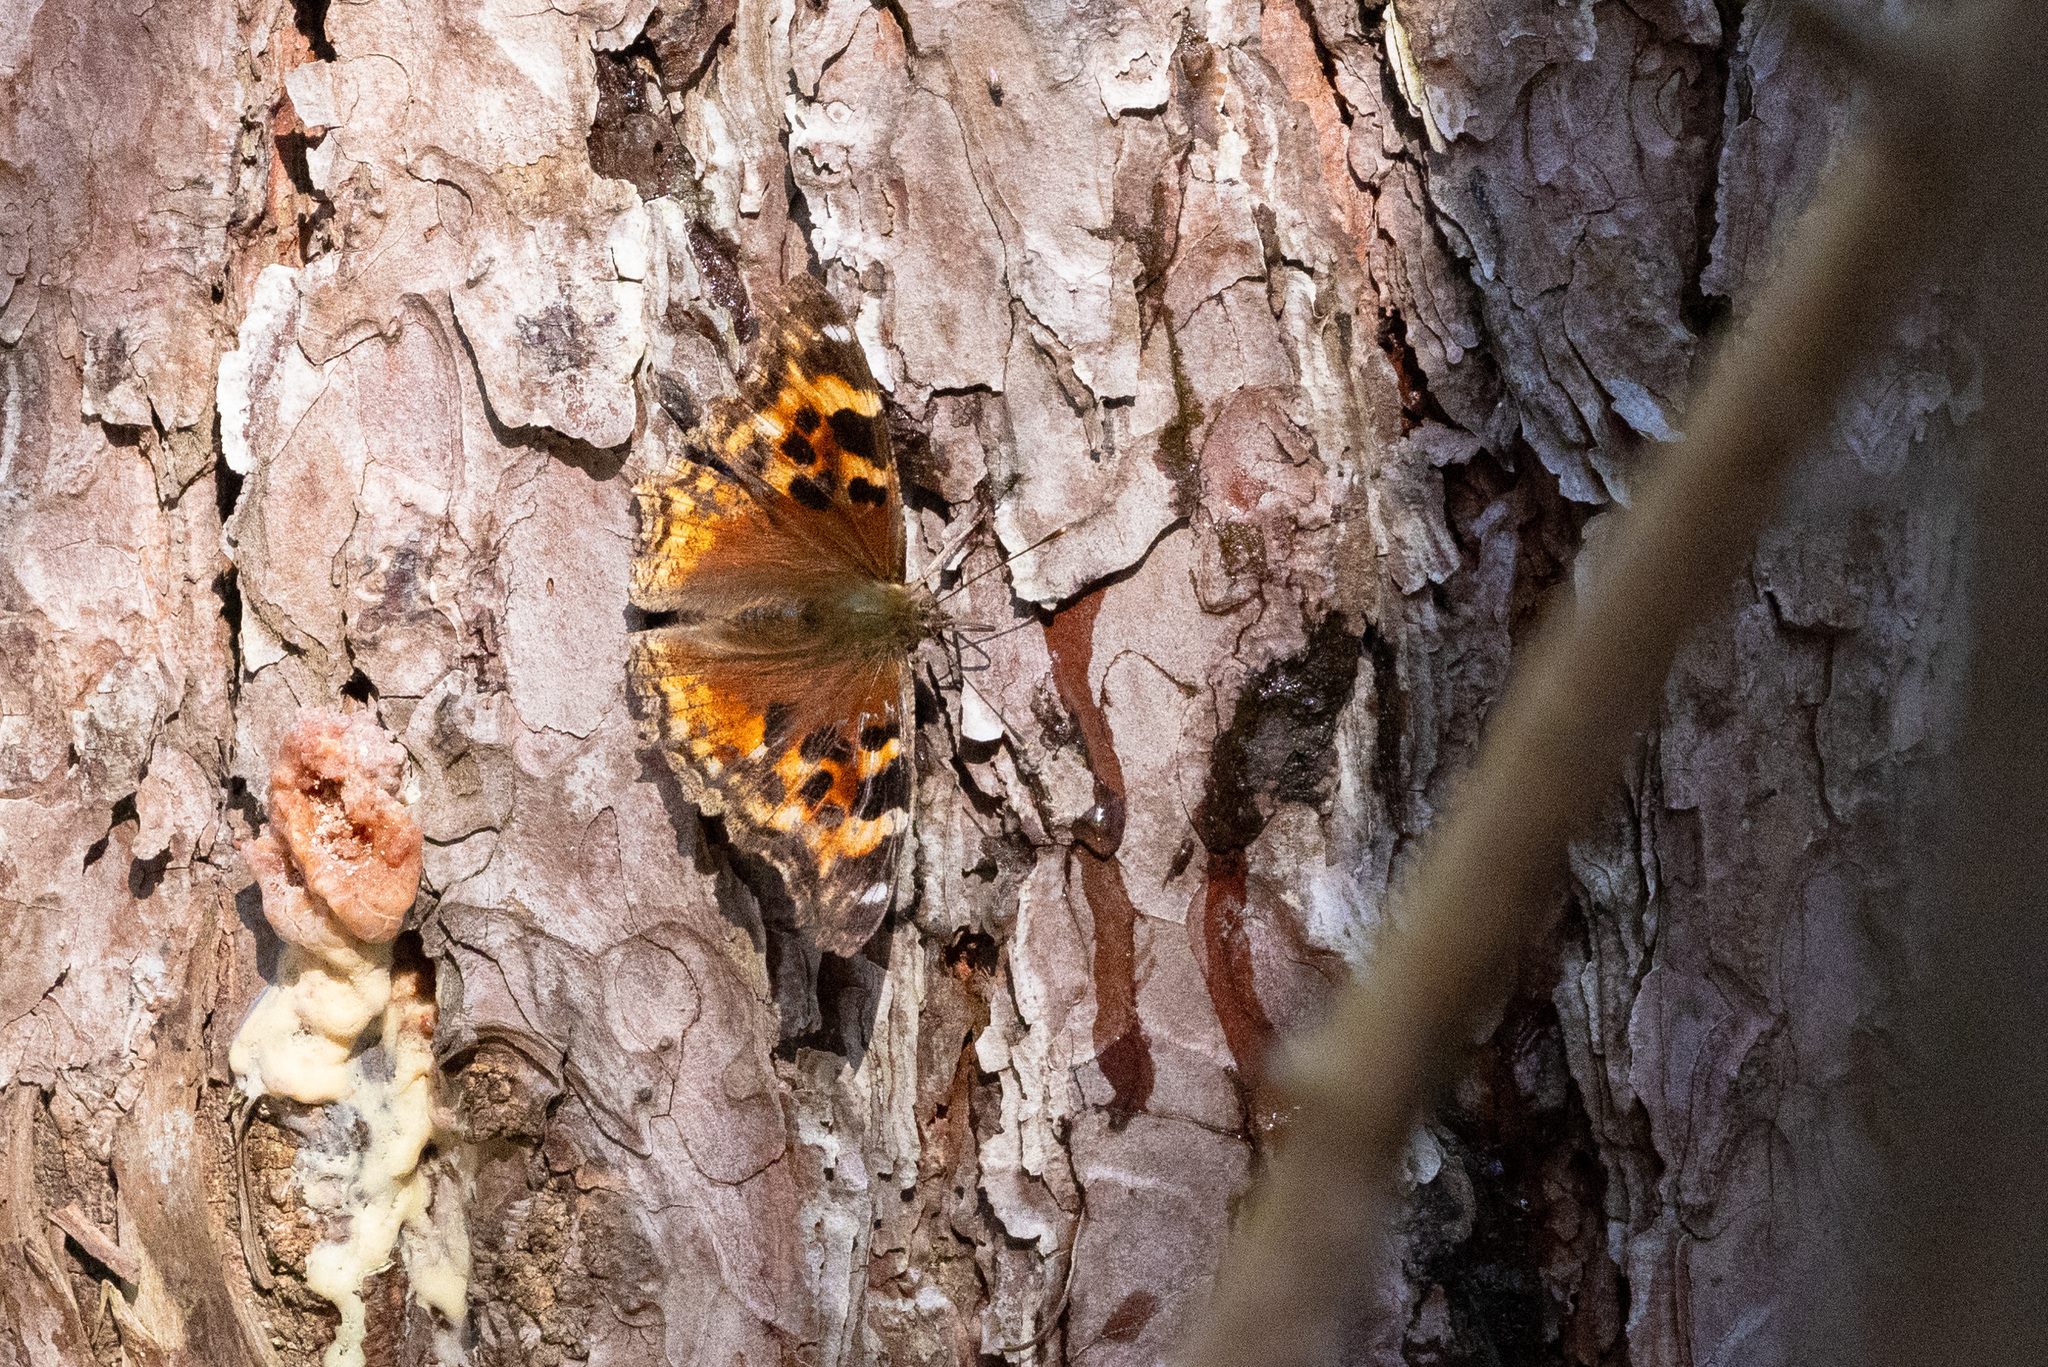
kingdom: Animalia
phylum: Arthropoda
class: Insecta
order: Lepidoptera
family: Nymphalidae
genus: Polygonia
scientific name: Polygonia vaualbum
